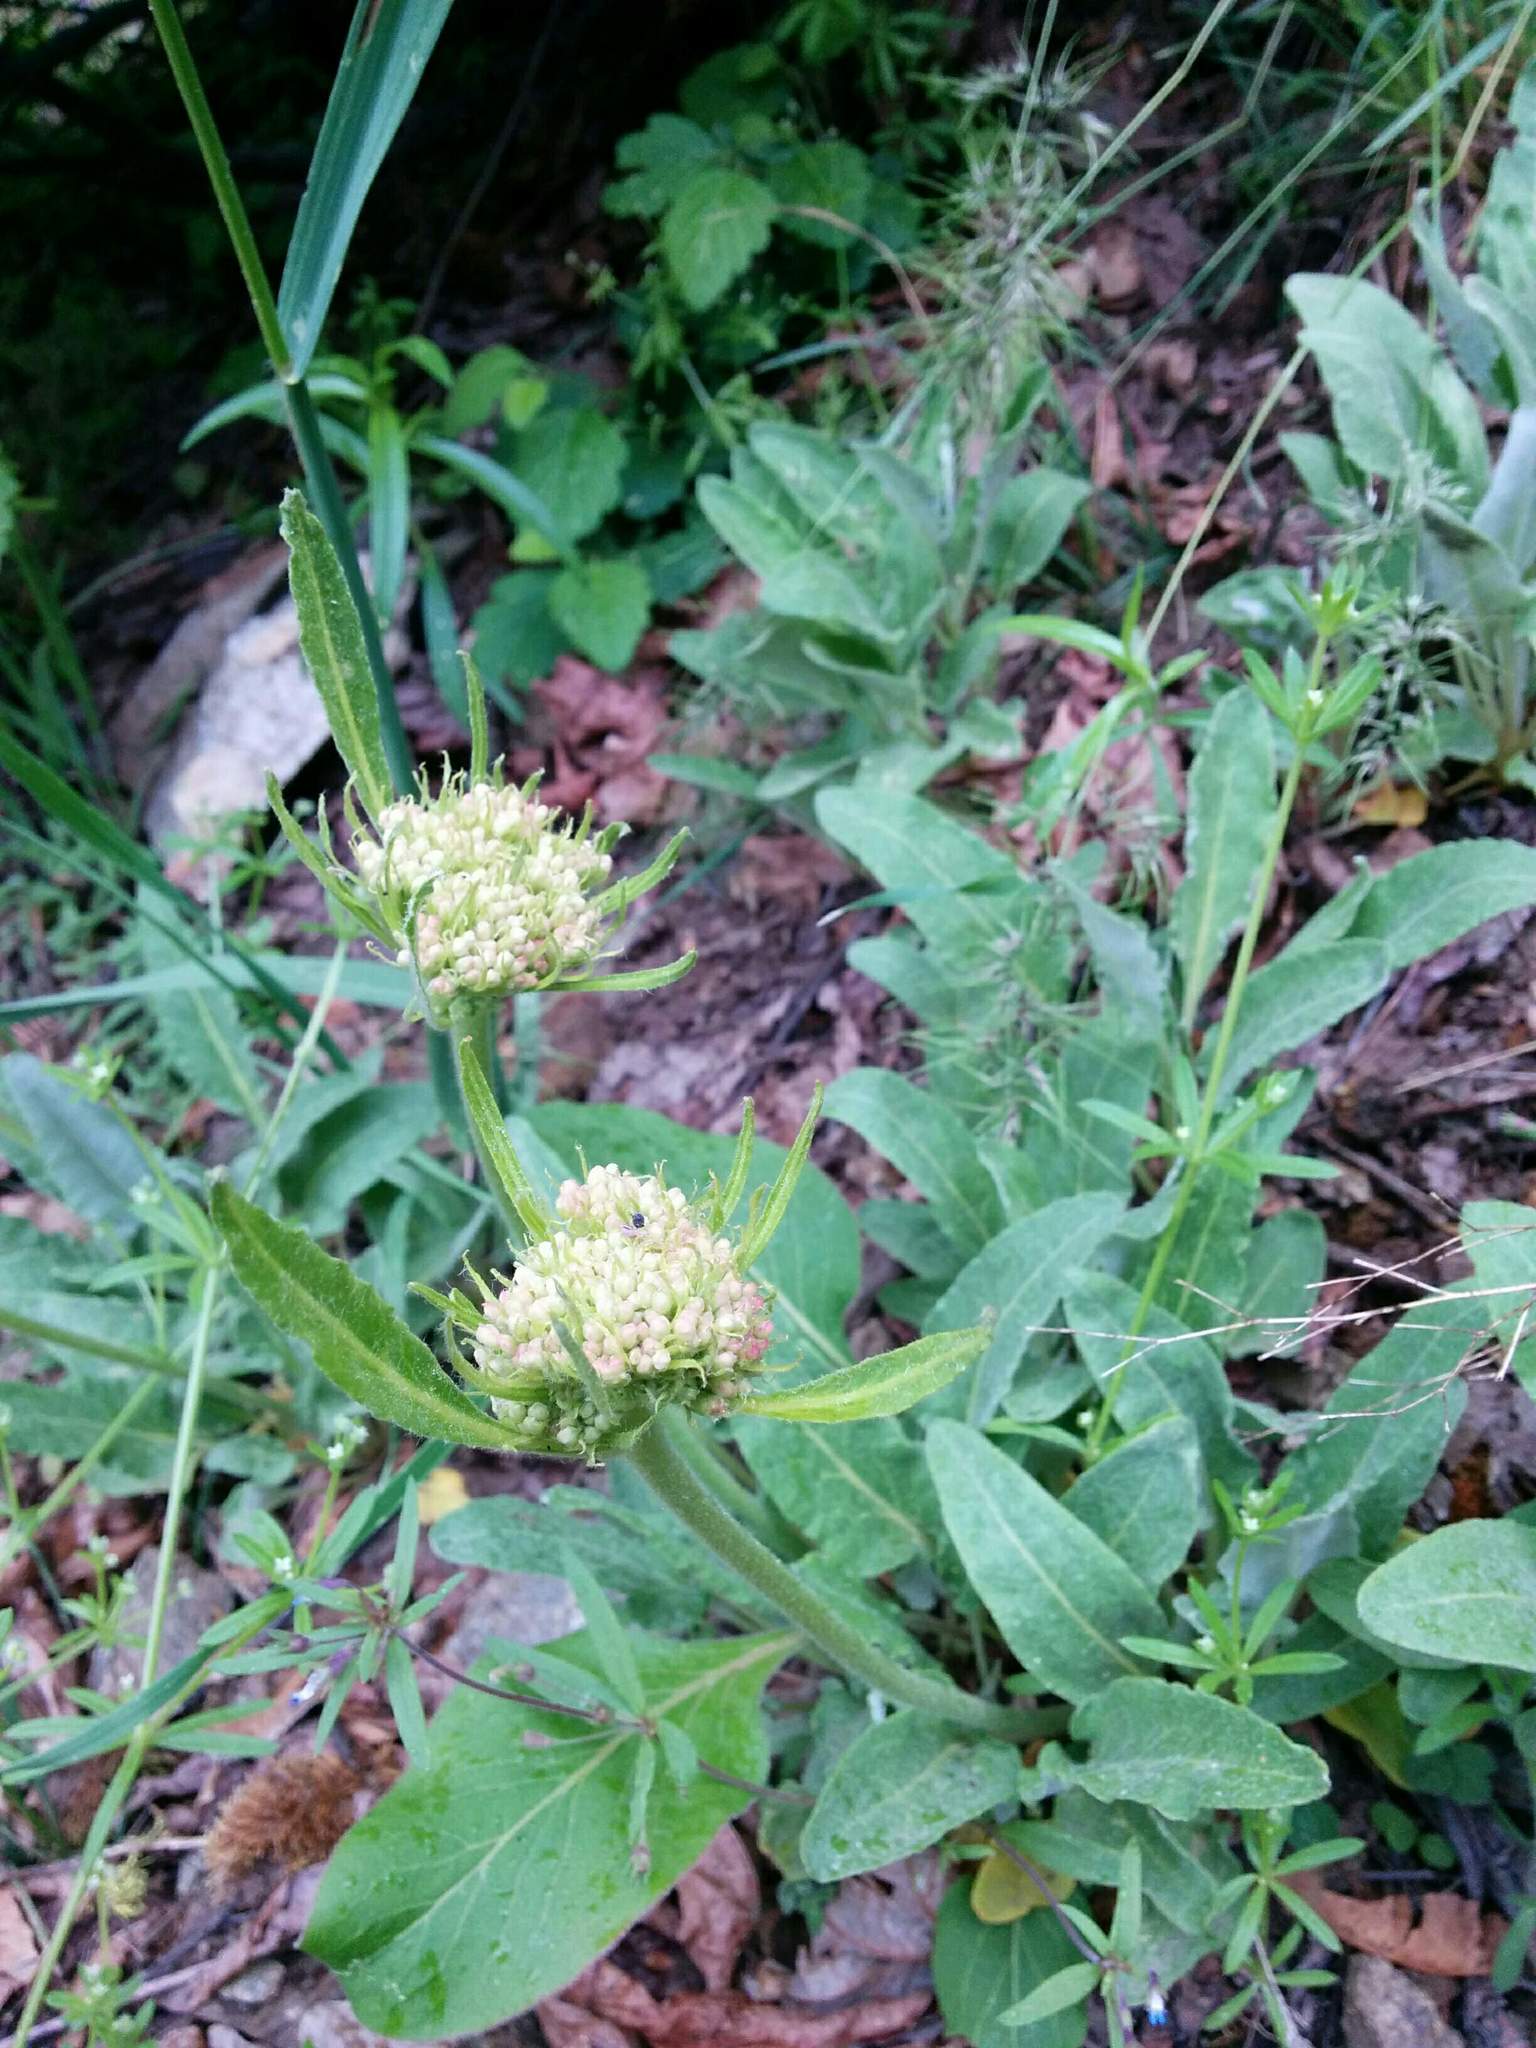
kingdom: Plantae
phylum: Tracheophyta
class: Magnoliopsida
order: Caryophyllales
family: Polygonaceae
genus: Eriogonum
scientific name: Eriogonum compositum
